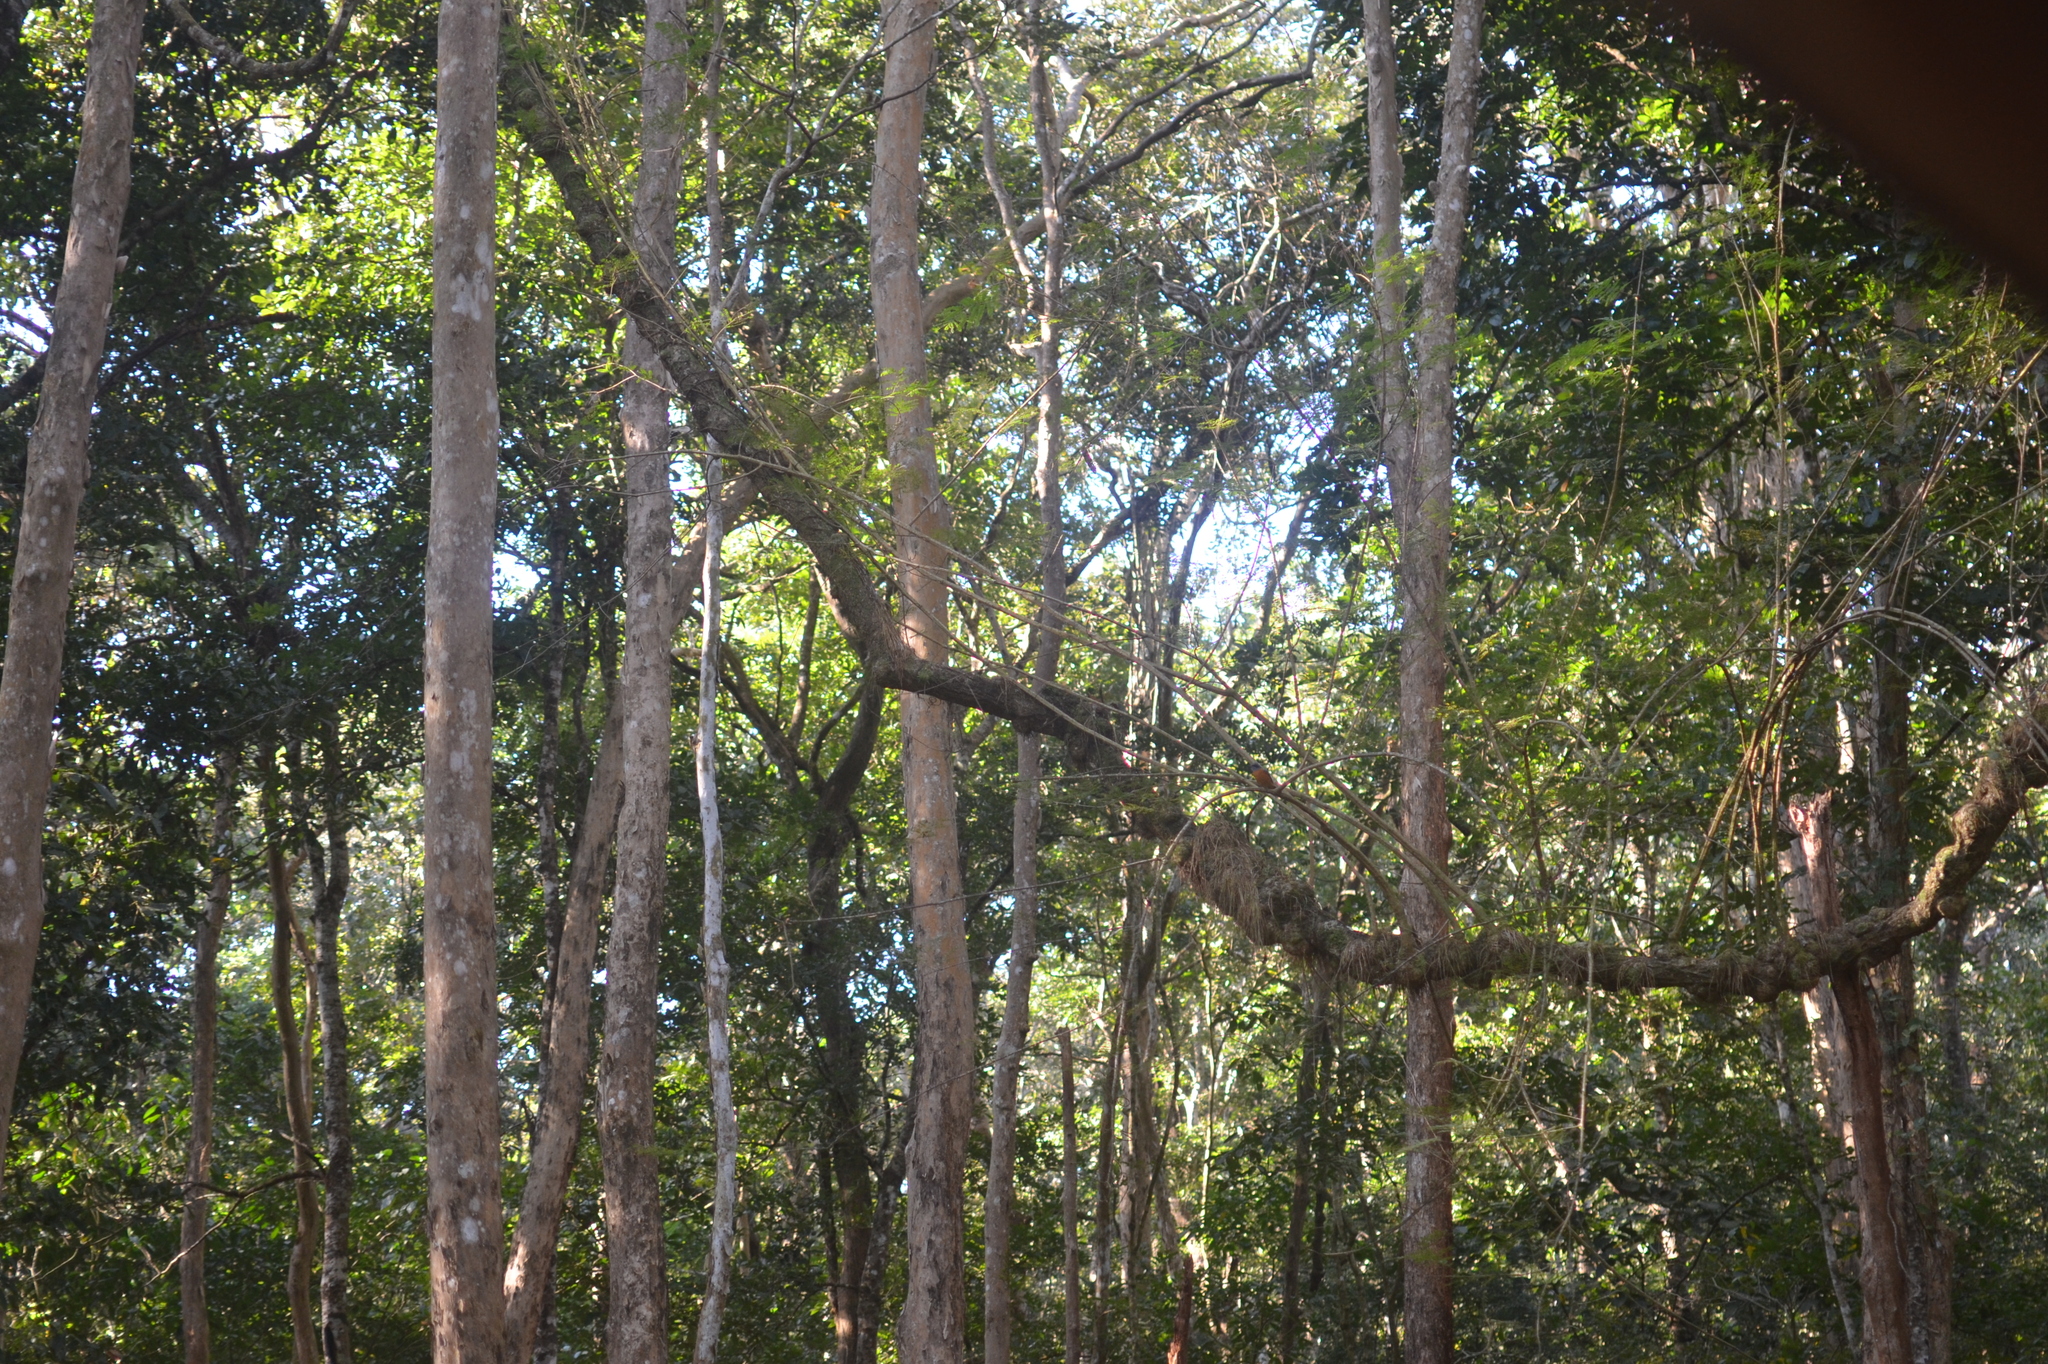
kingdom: Animalia
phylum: Chordata
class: Aves
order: Passeriformes
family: Muscicapidae
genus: Monticola
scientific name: Monticola cinclorhynchus
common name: Blue-capped rock thrush
